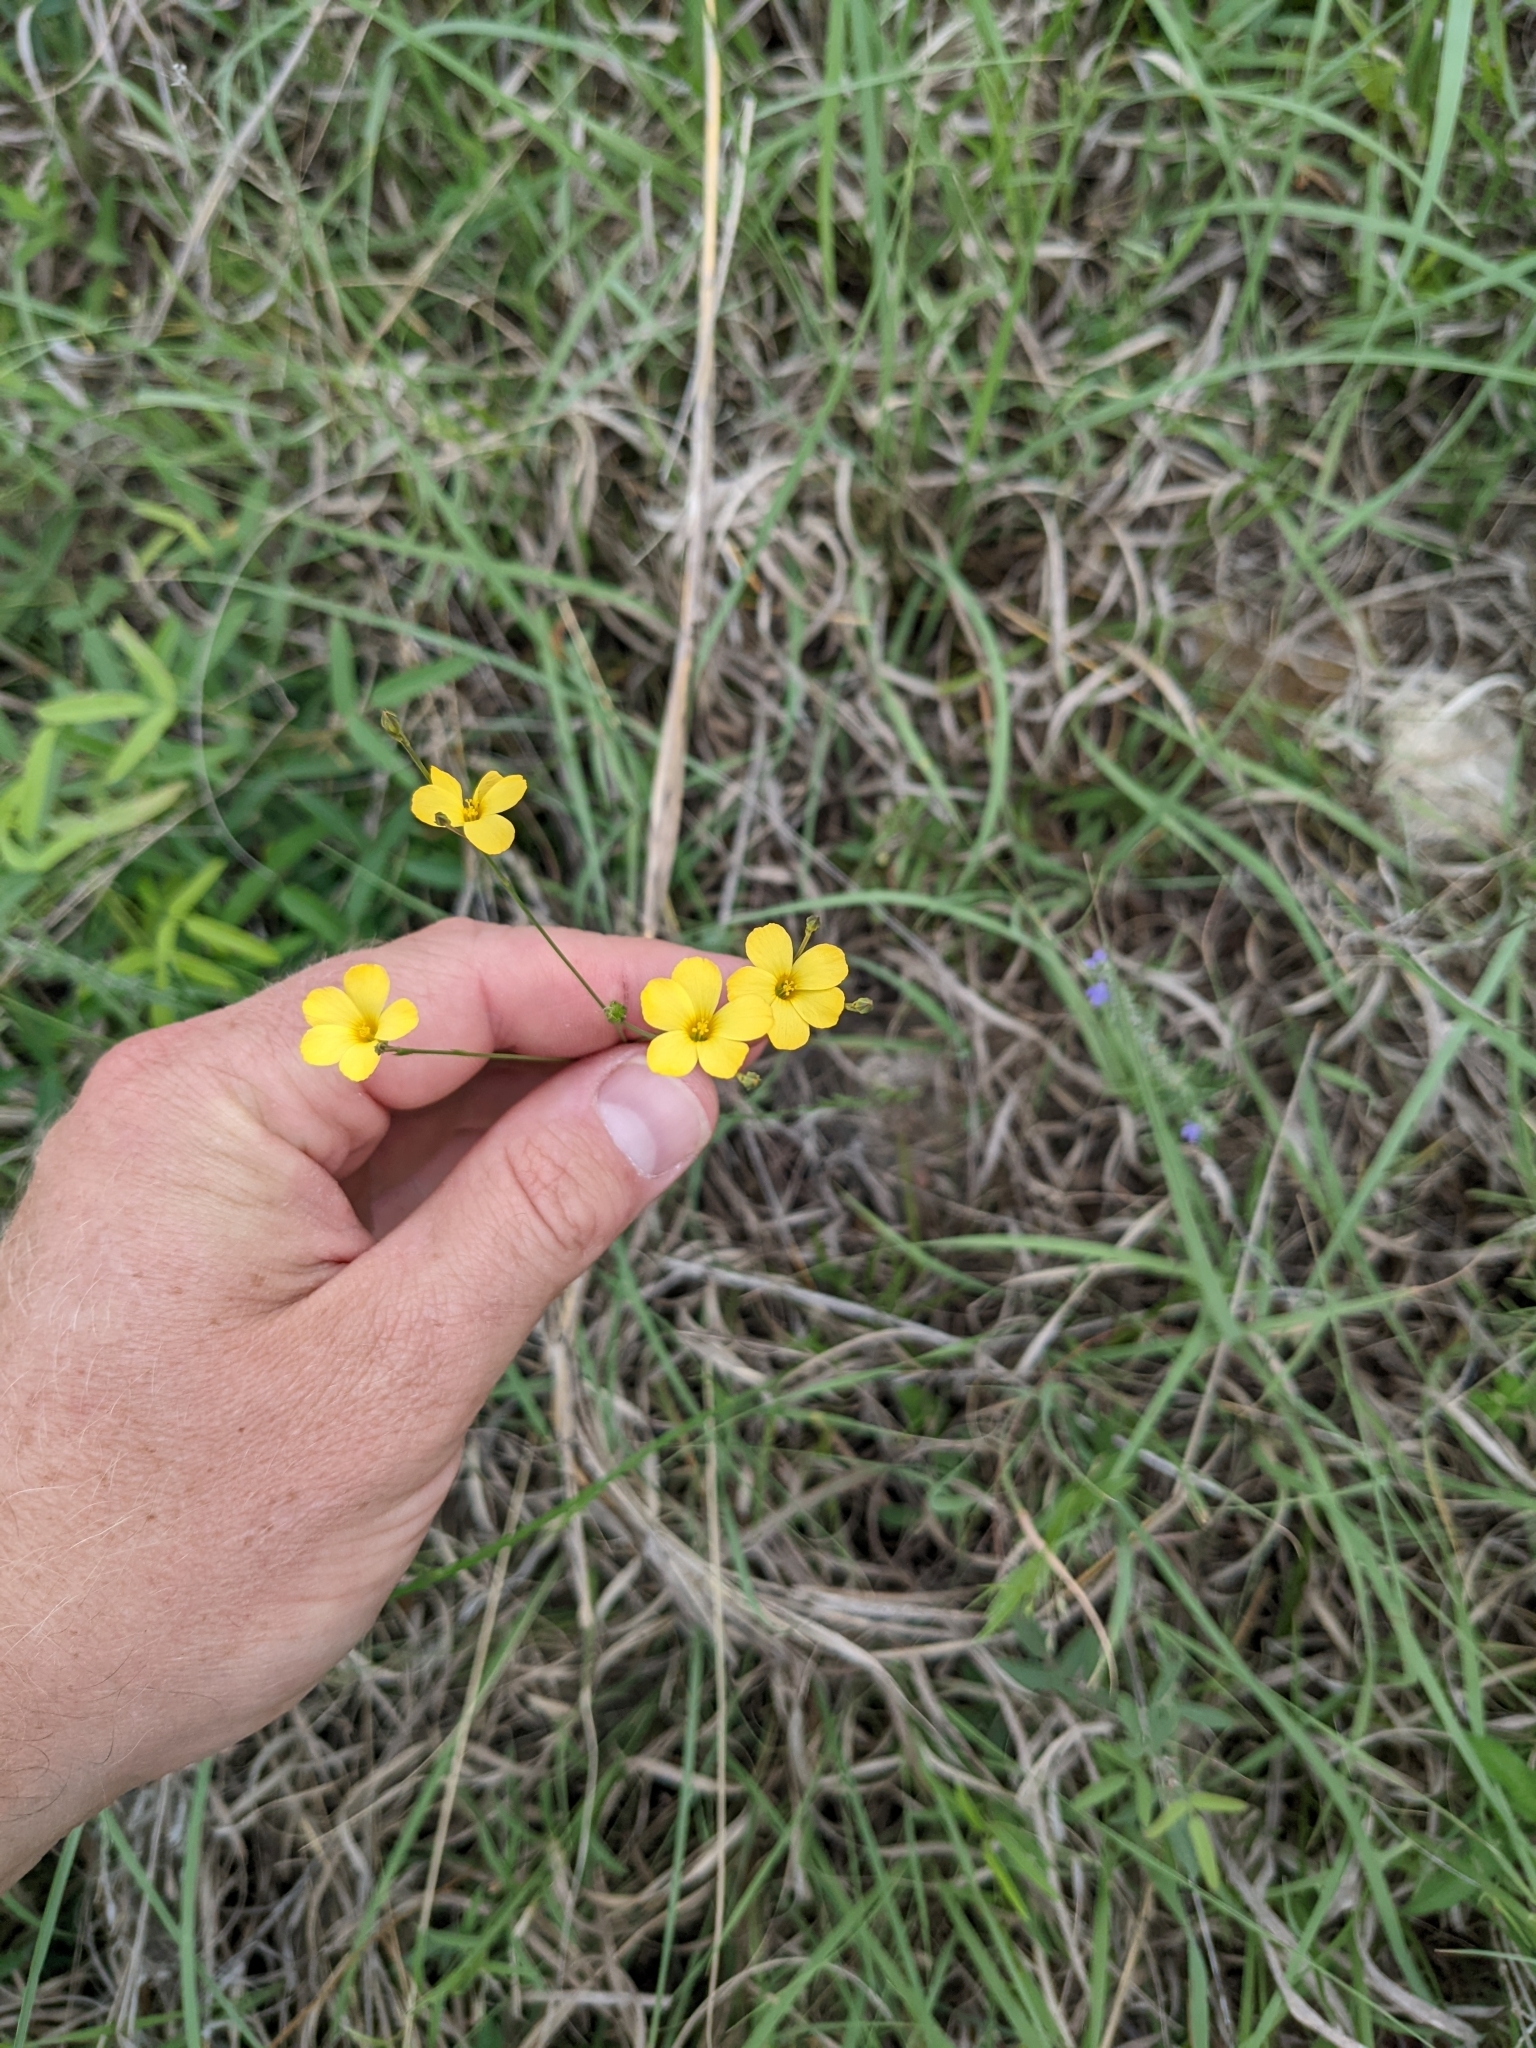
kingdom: Plantae
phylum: Tracheophyta
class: Magnoliopsida
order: Malpighiales
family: Linaceae
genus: Linum
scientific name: Linum rupestre
